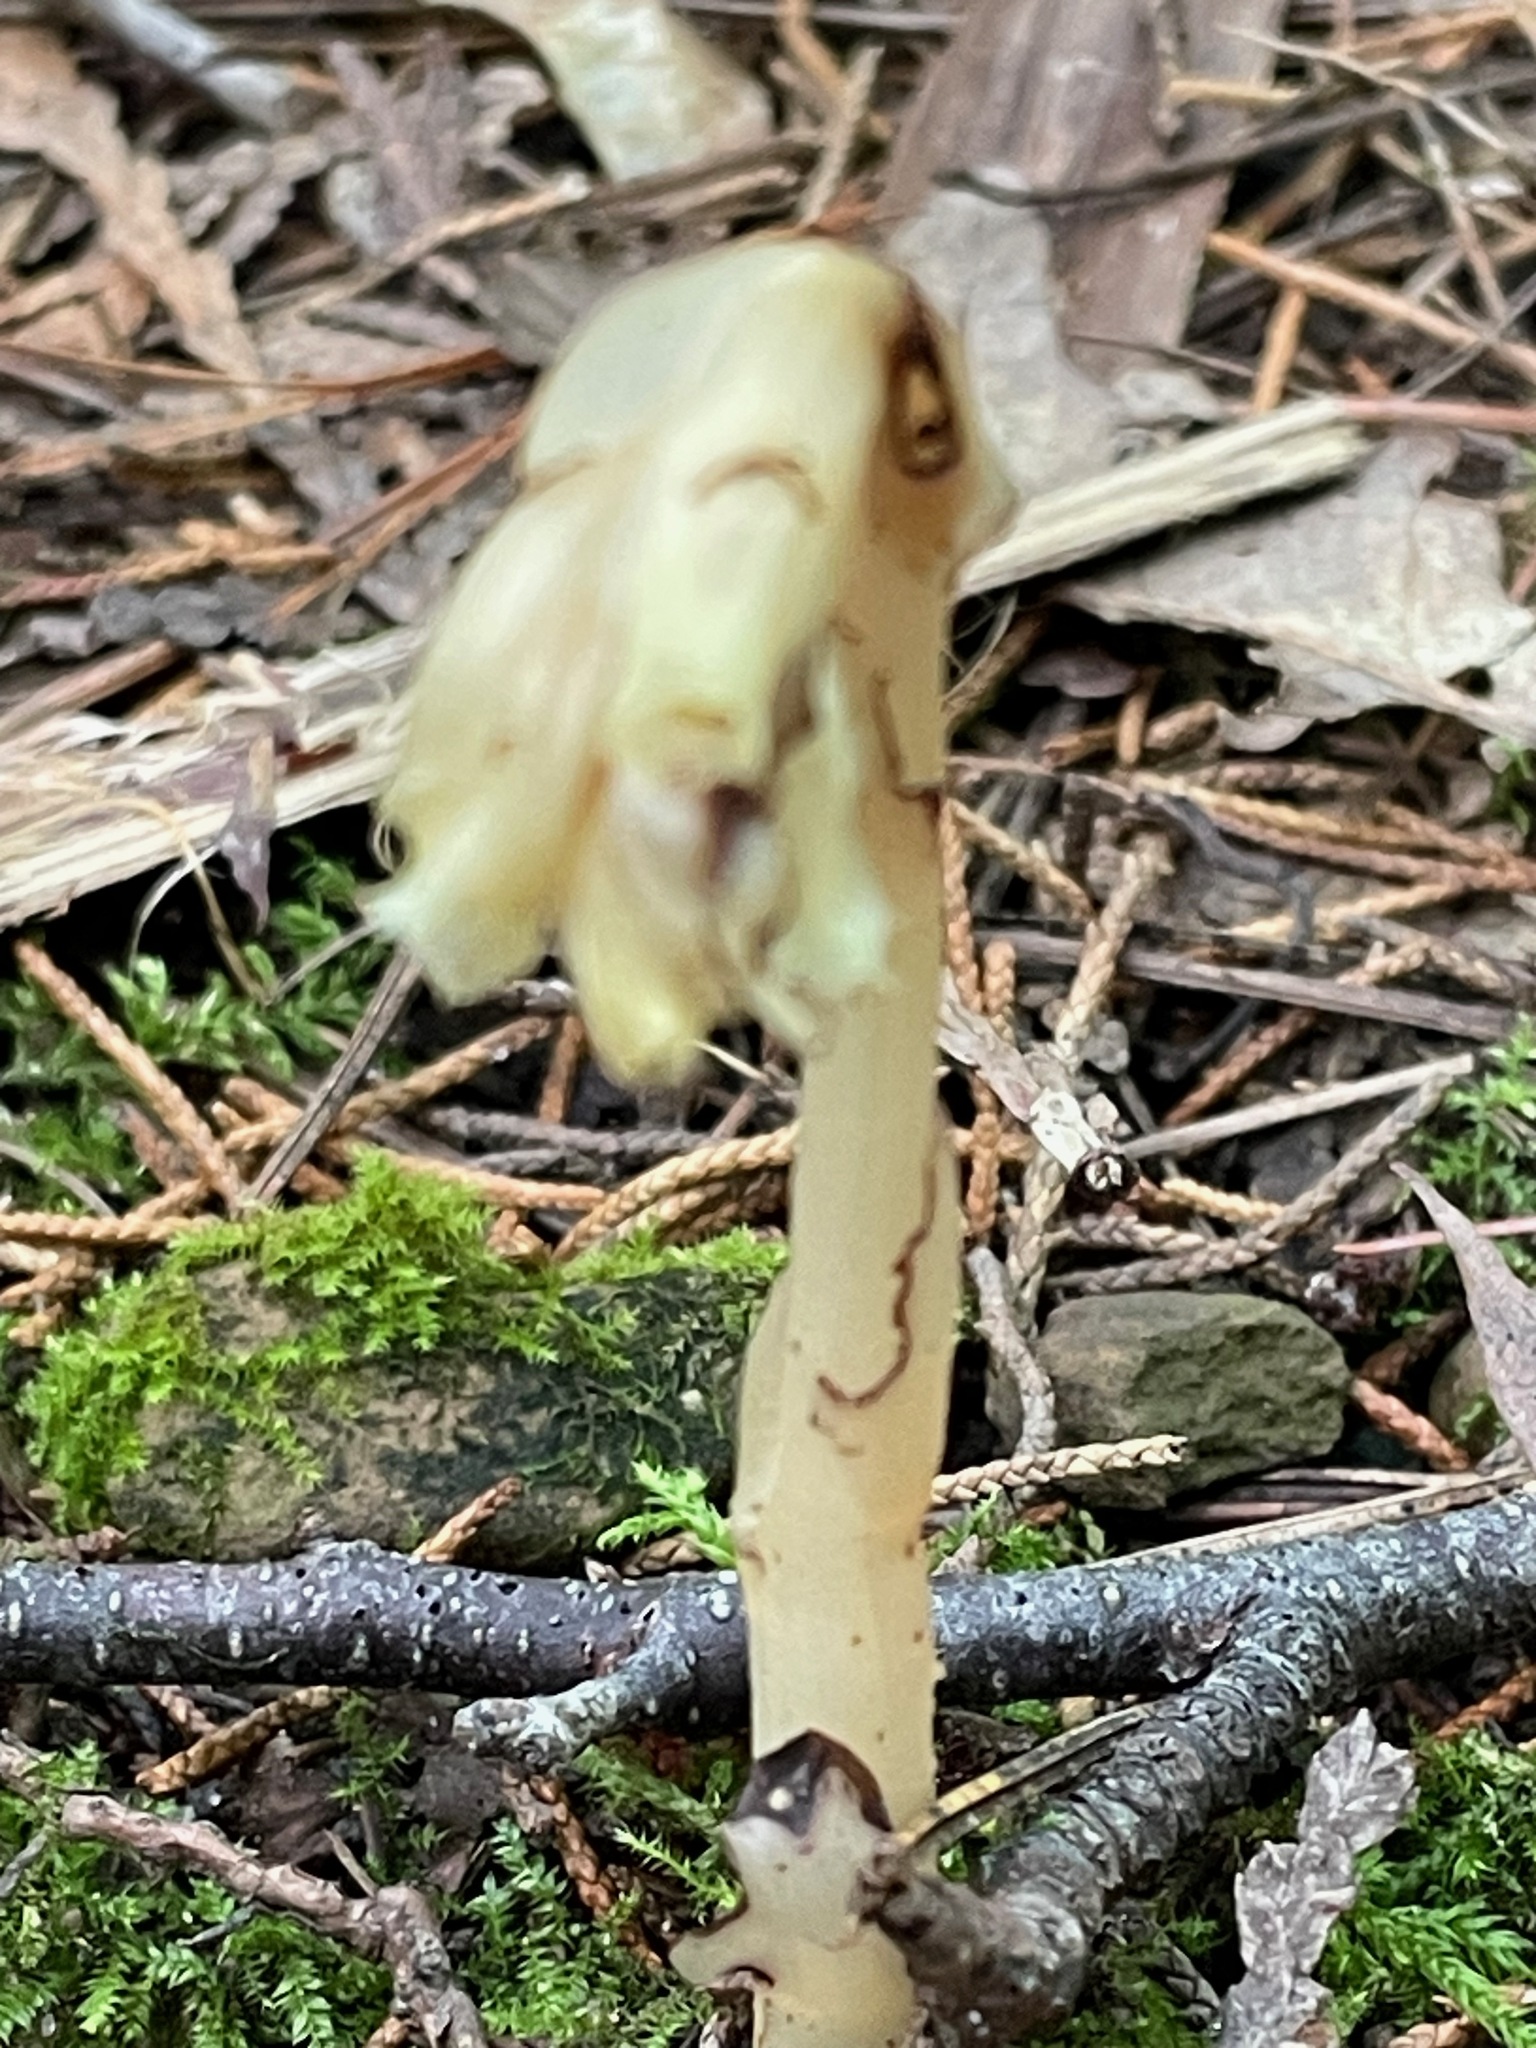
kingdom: Plantae
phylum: Tracheophyta
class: Magnoliopsida
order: Ericales
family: Ericaceae
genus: Hypopitys
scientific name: Hypopitys monotropa
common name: Yellow bird's-nest
